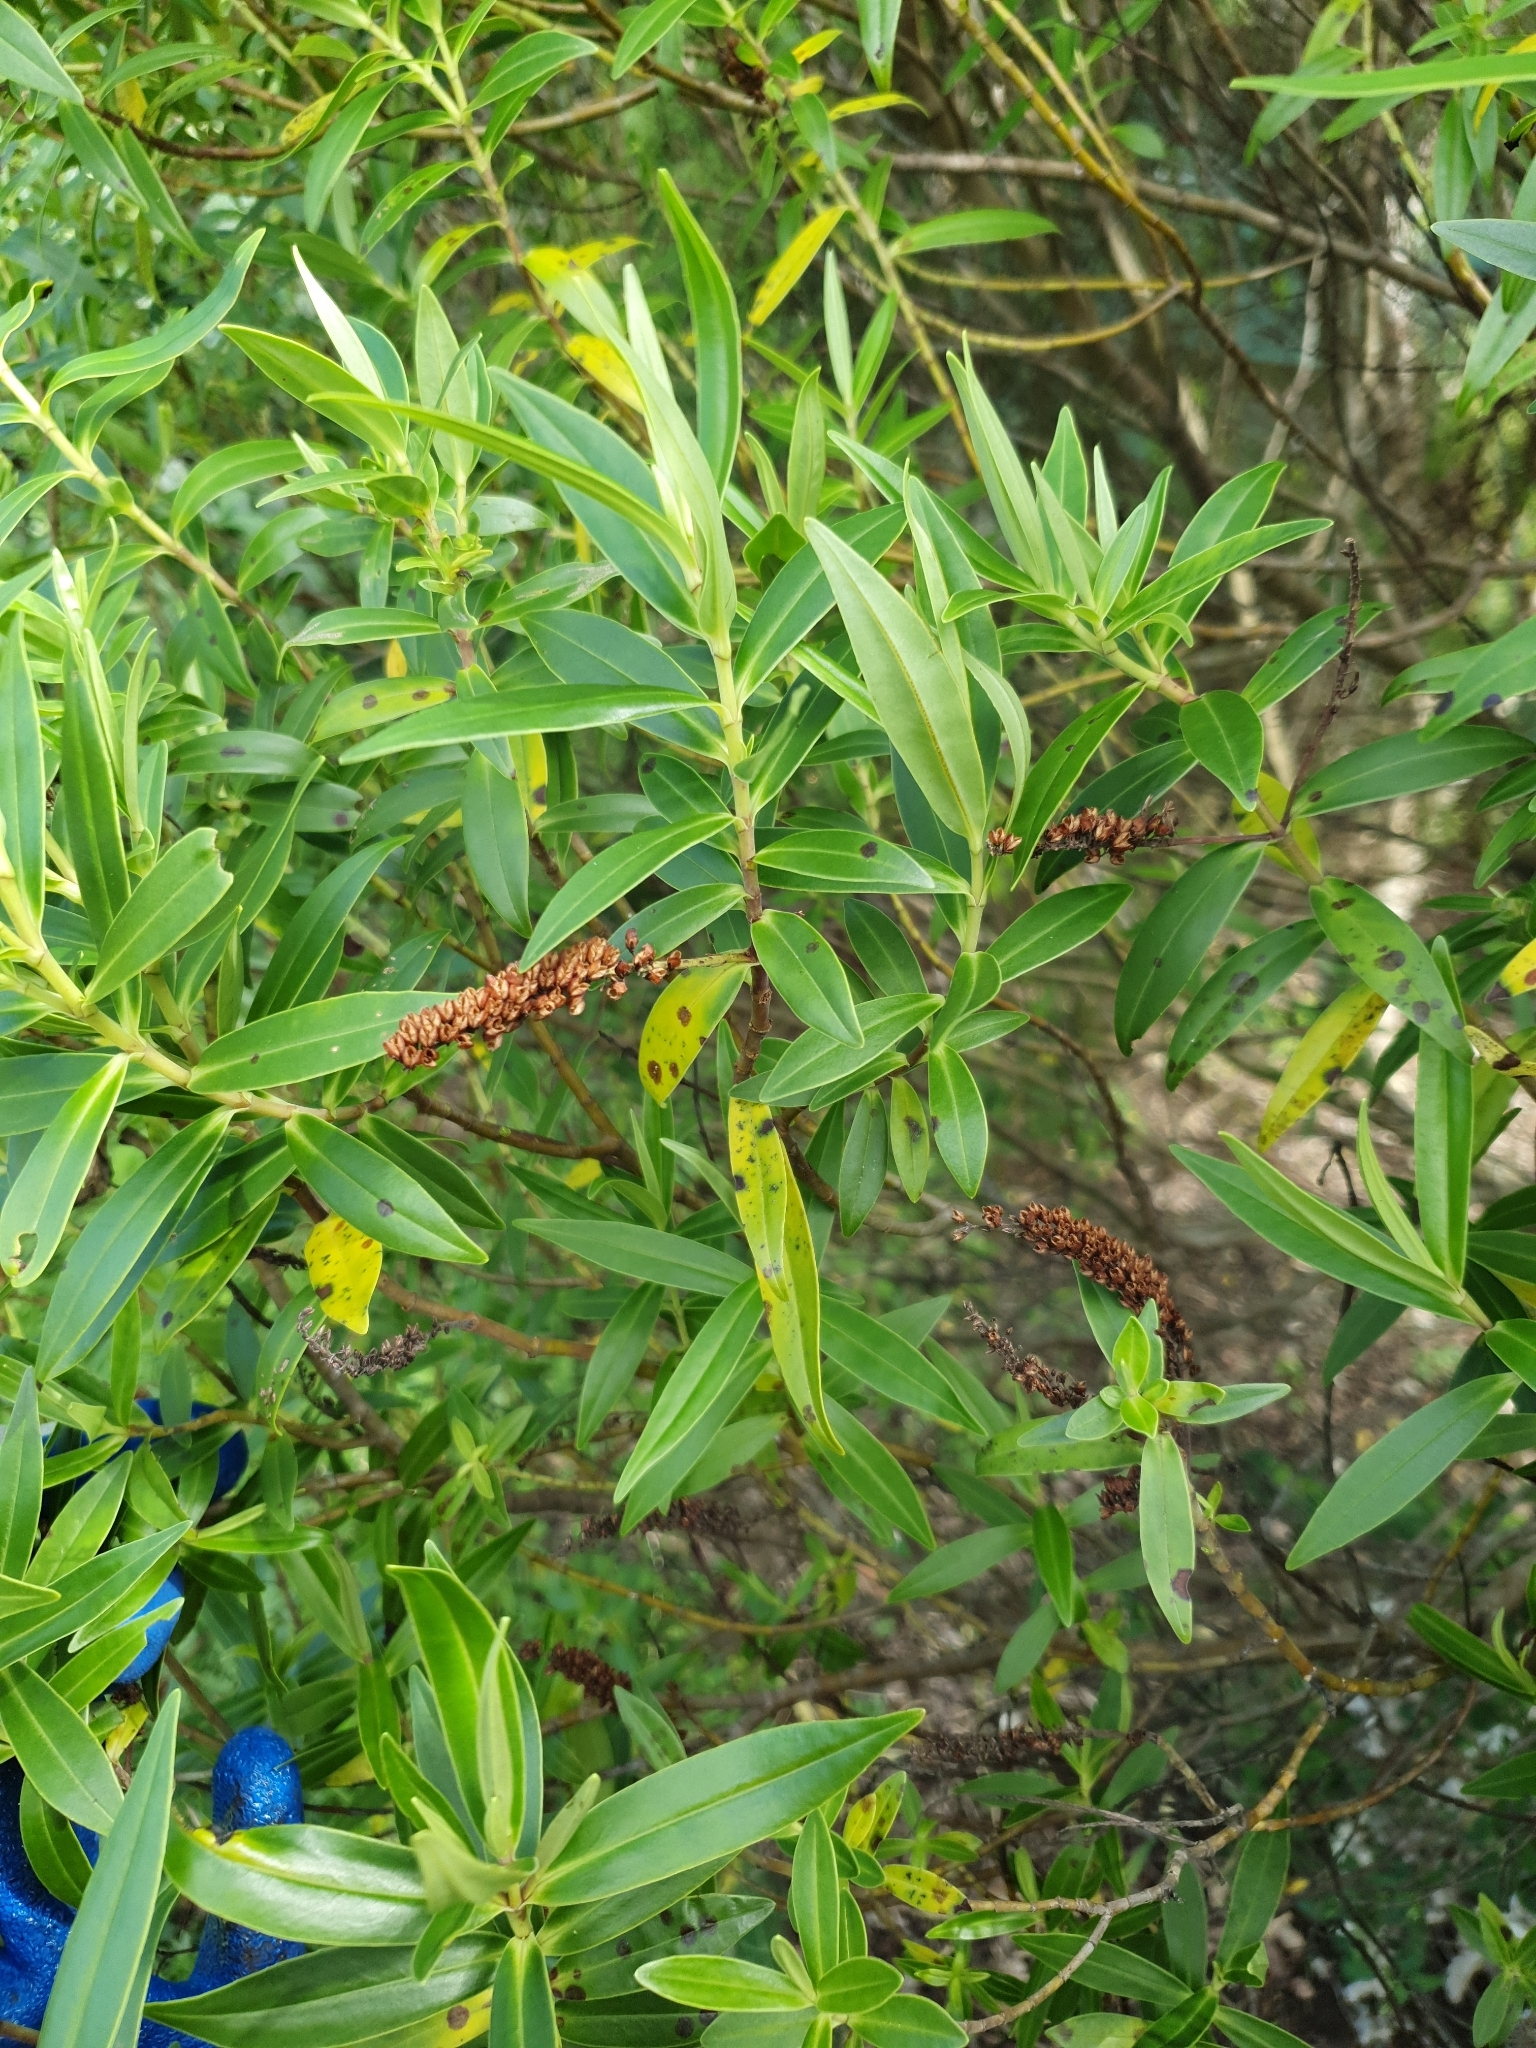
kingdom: Plantae
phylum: Tracheophyta
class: Magnoliopsida
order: Lamiales
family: Plantaginaceae
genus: Veronica
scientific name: Veronica stricta
